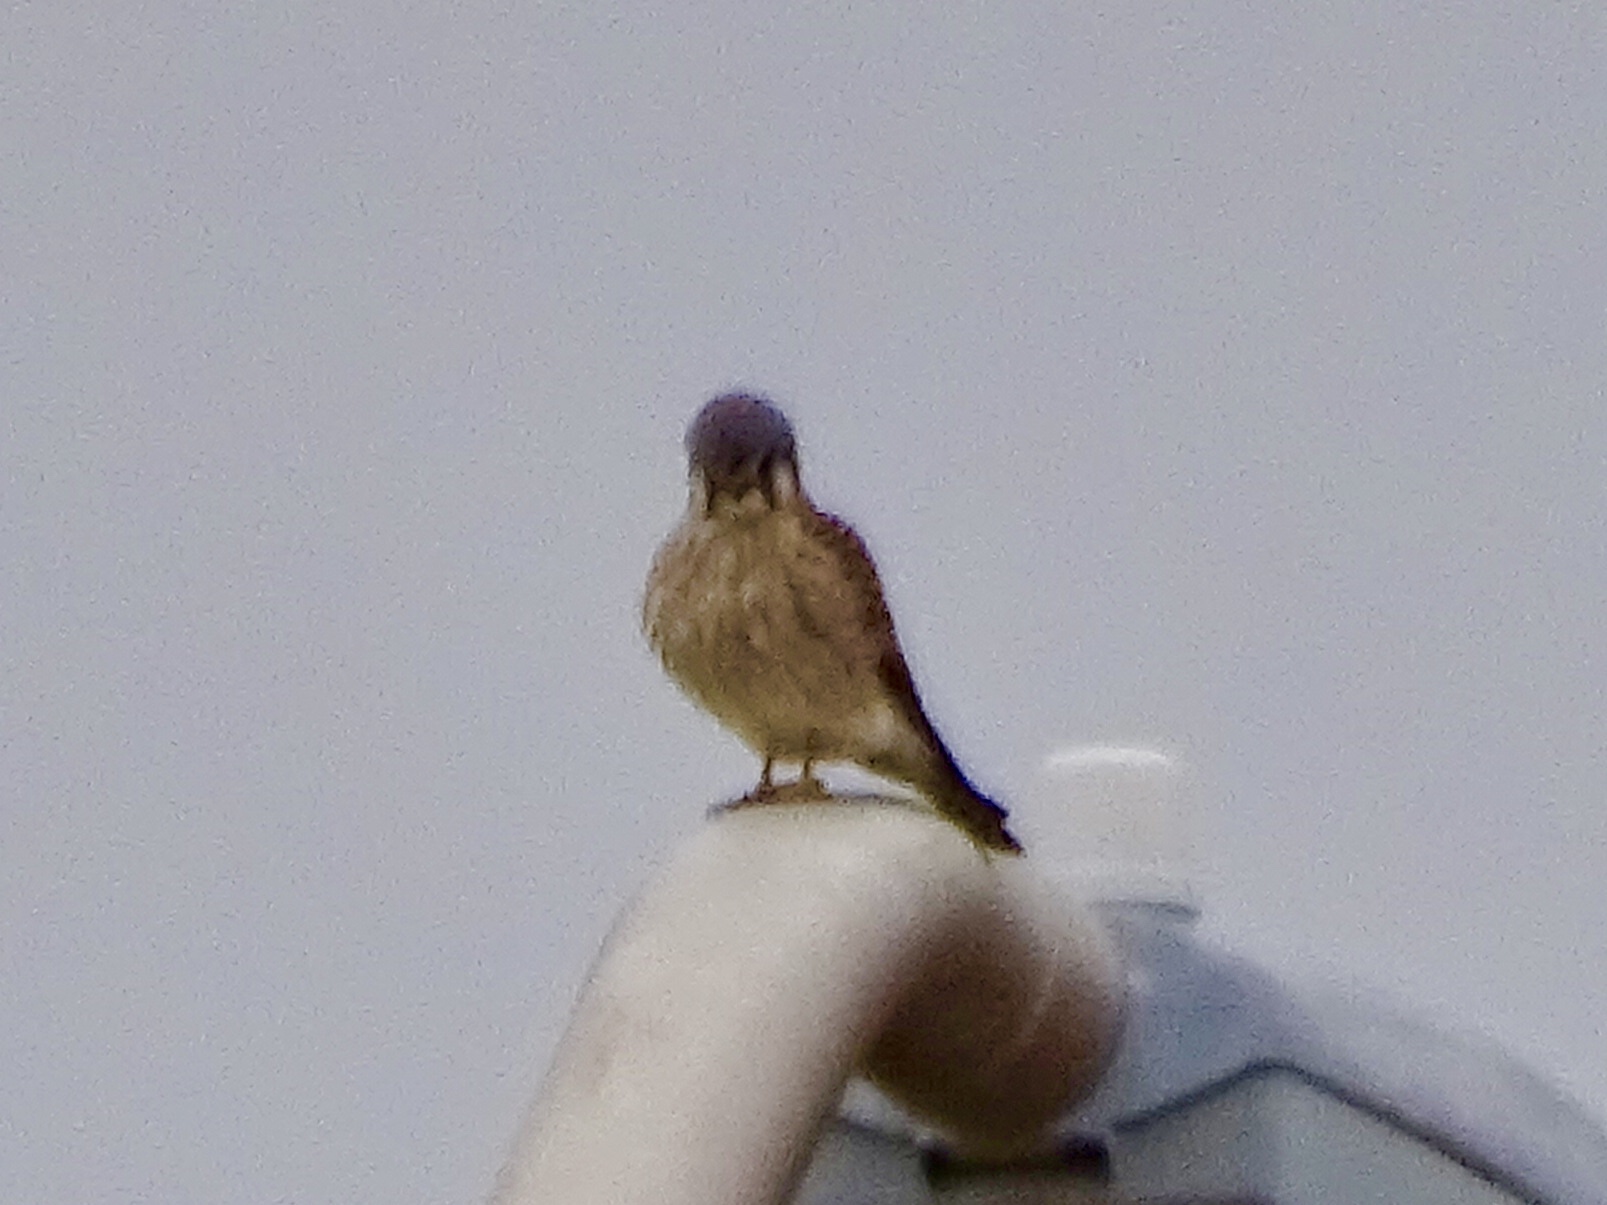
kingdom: Animalia
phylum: Chordata
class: Aves
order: Falconiformes
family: Falconidae
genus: Falco
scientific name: Falco sparverius
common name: American kestrel
